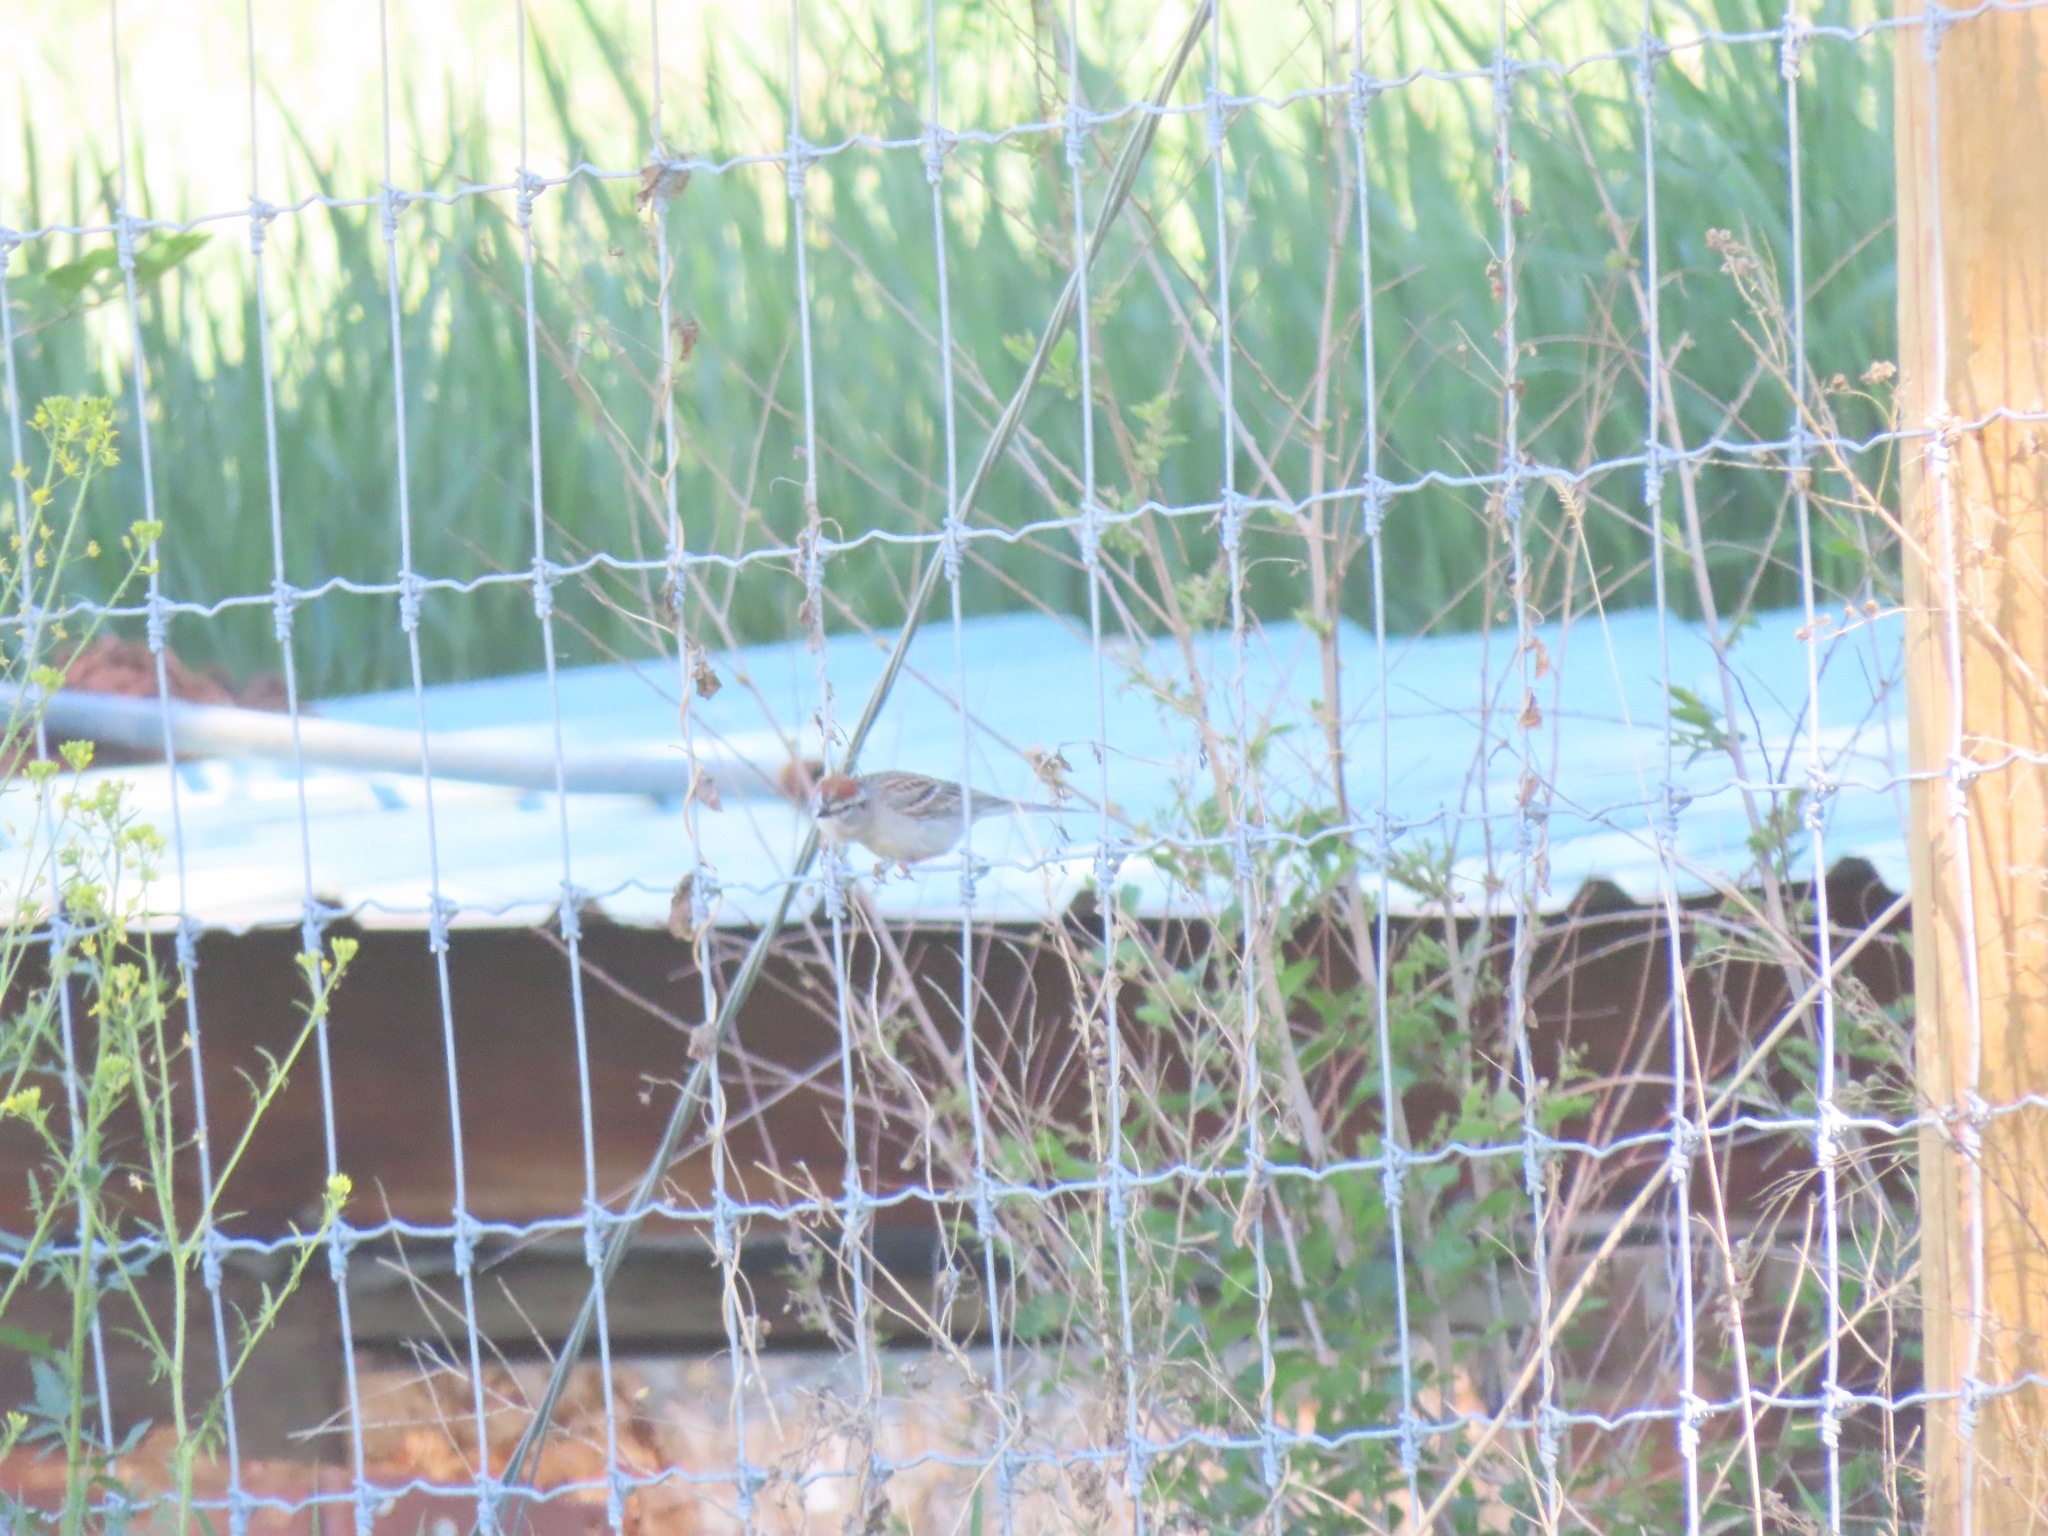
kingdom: Animalia
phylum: Chordata
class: Aves
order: Passeriformes
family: Passerellidae
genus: Spizella
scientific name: Spizella passerina
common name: Chipping sparrow
